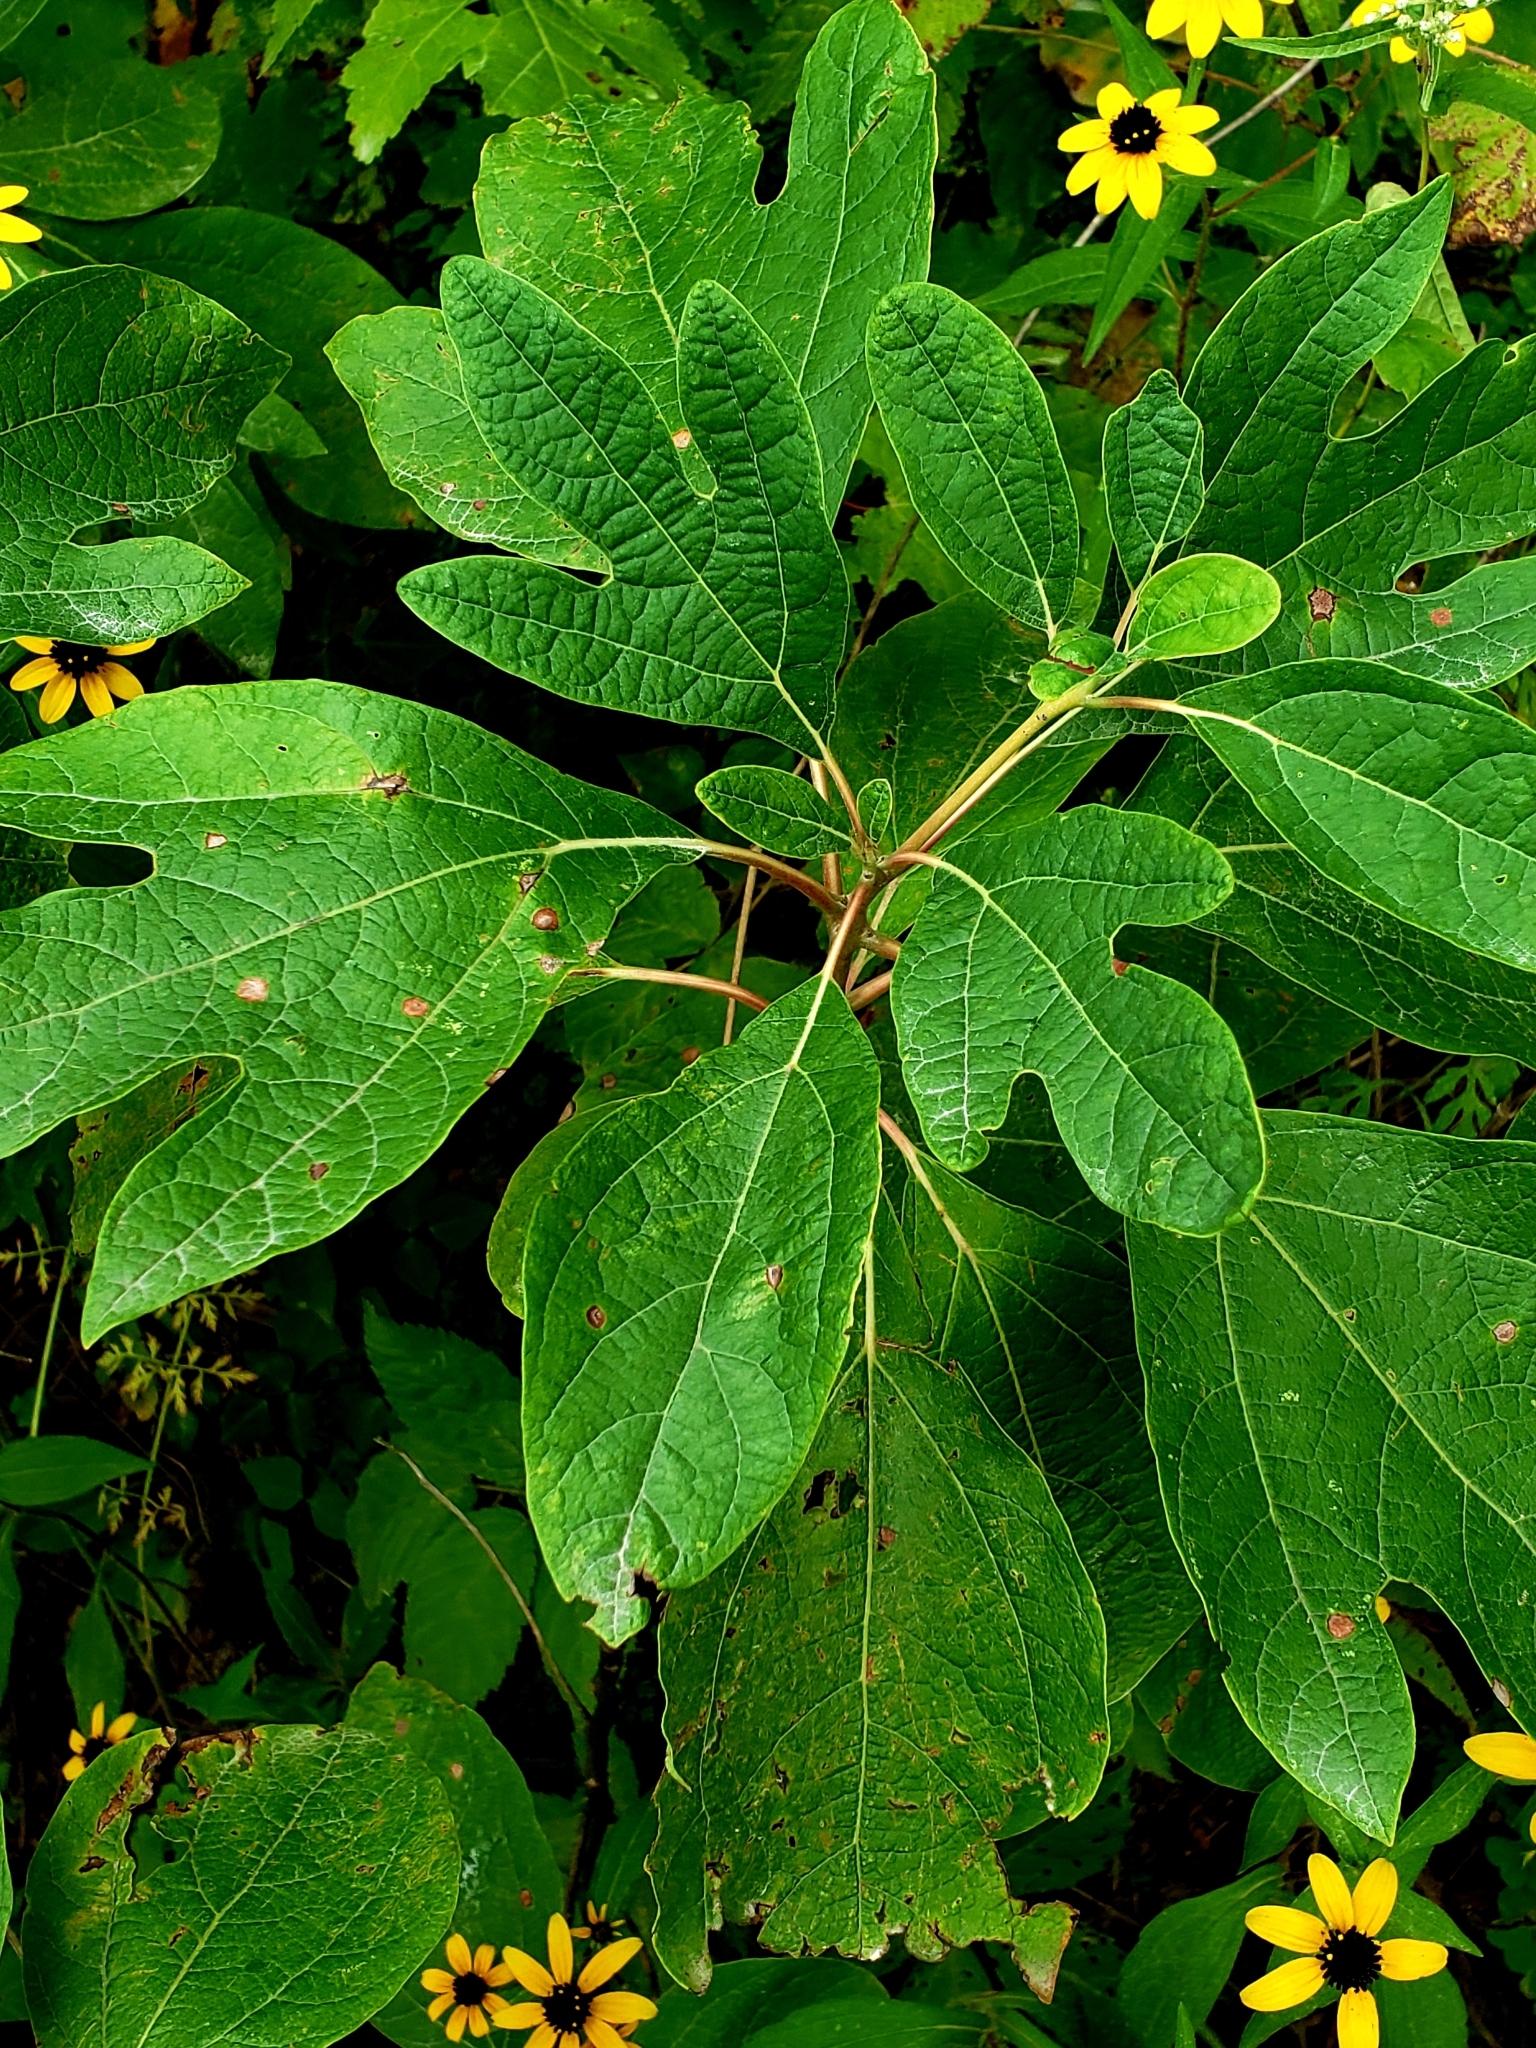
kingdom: Plantae
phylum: Tracheophyta
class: Magnoliopsida
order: Laurales
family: Lauraceae
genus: Sassafras
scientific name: Sassafras albidum
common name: Sassafras
